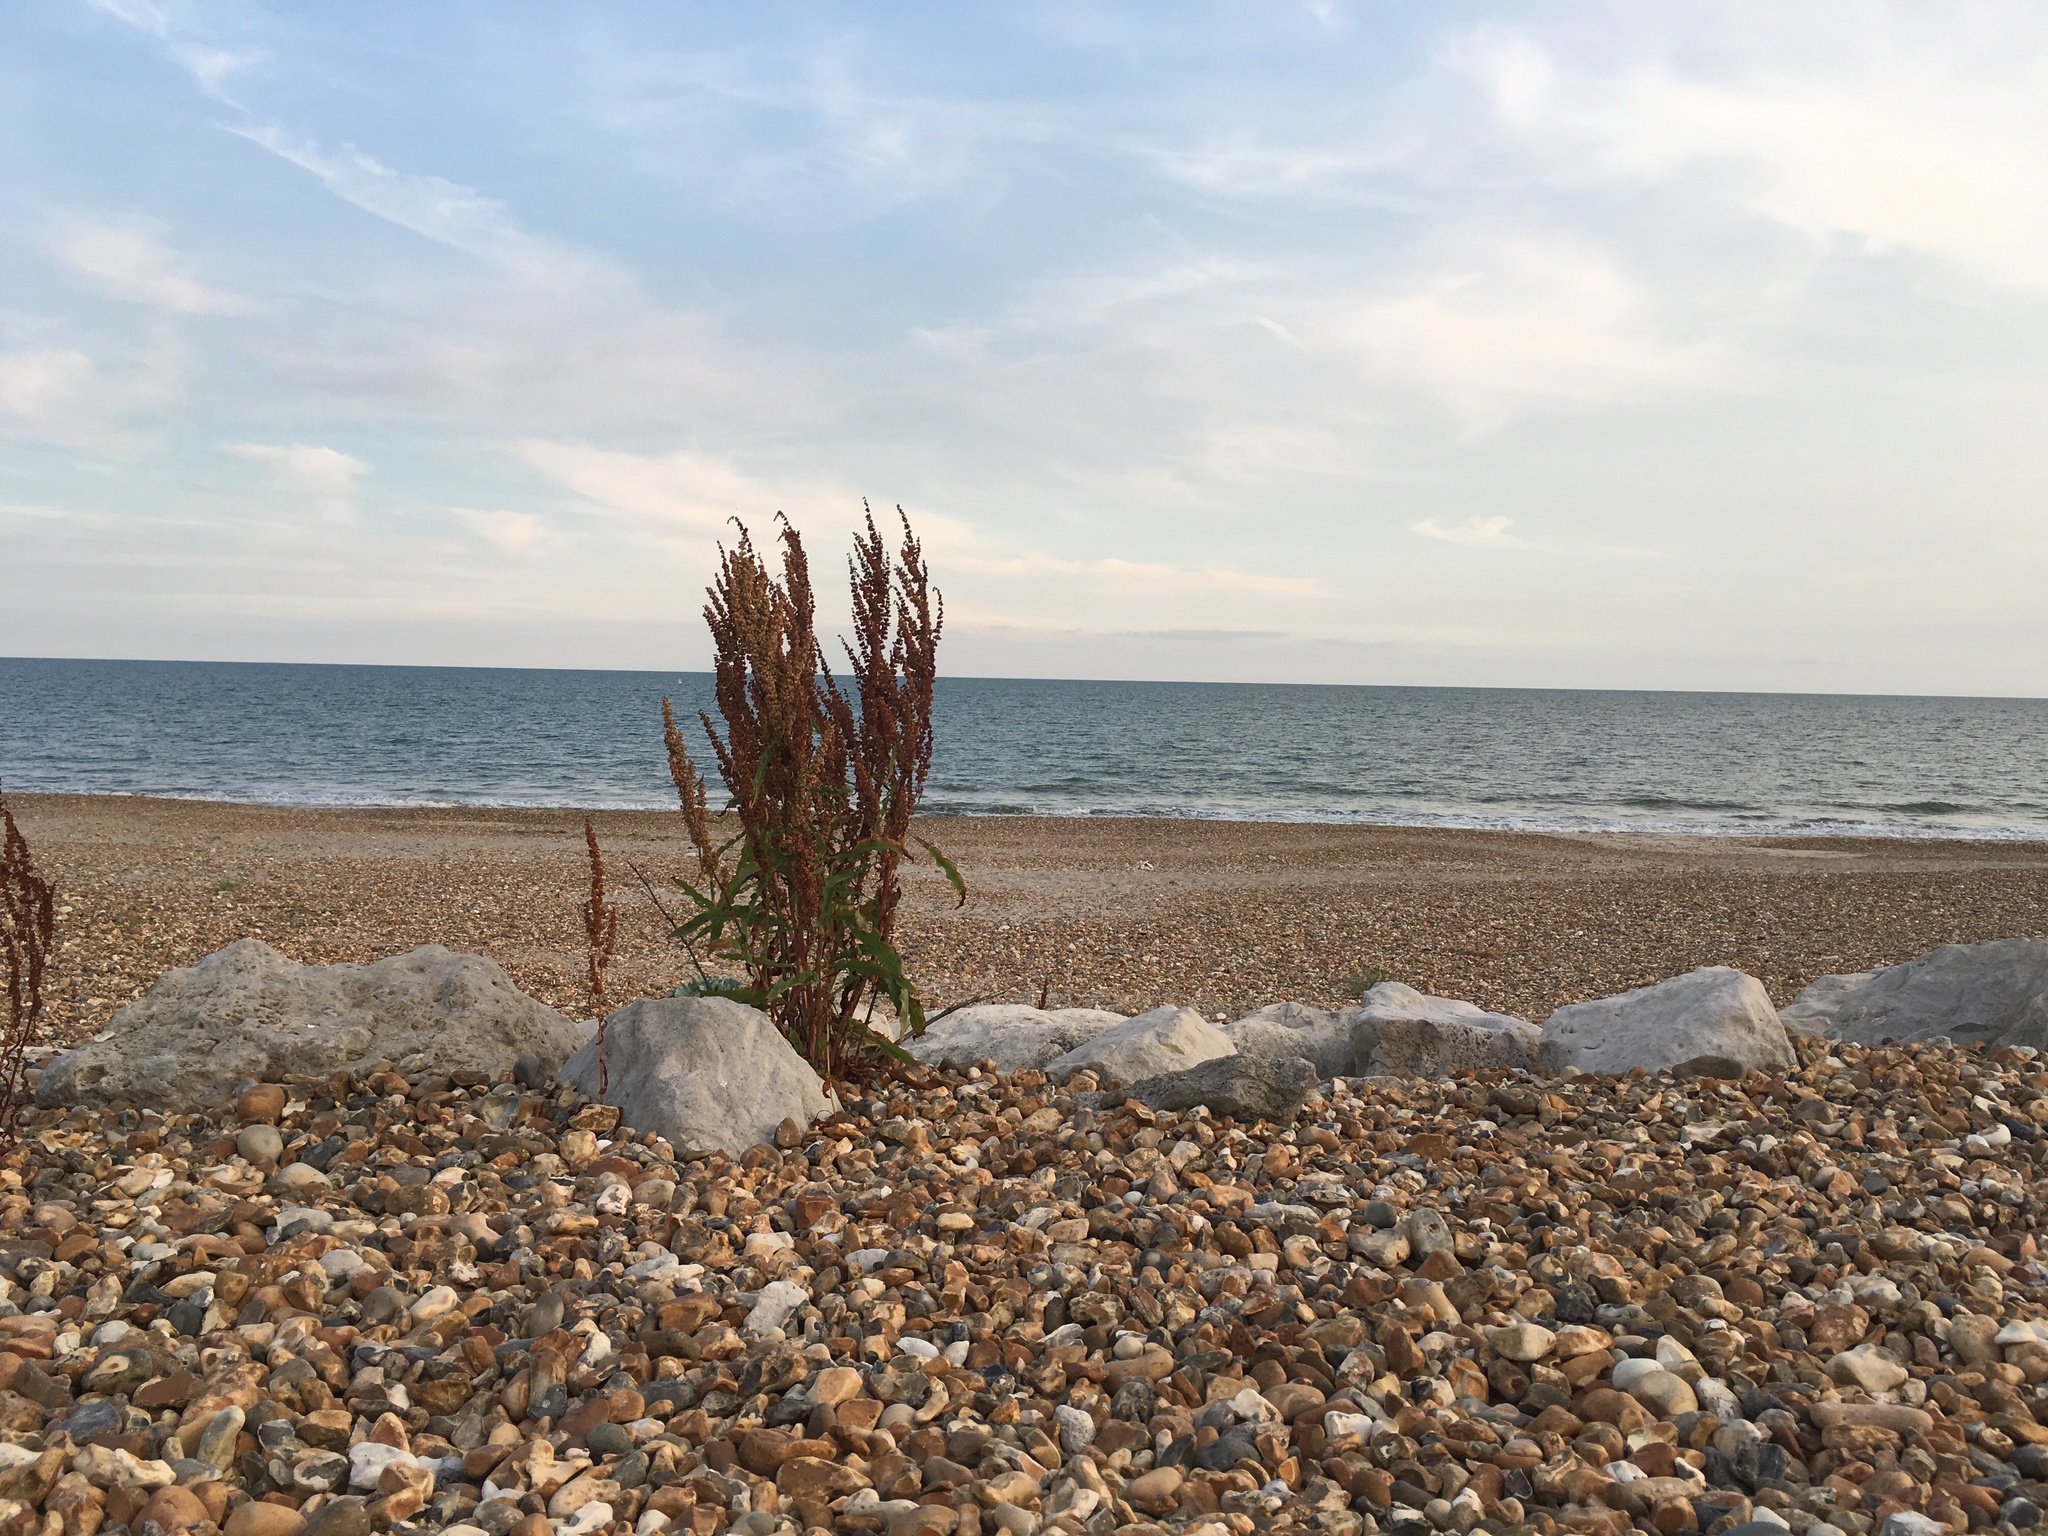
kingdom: Plantae
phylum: Tracheophyta
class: Magnoliopsida
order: Caryophyllales
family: Polygonaceae
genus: Rumex
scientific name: Rumex crispus
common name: Curled dock
